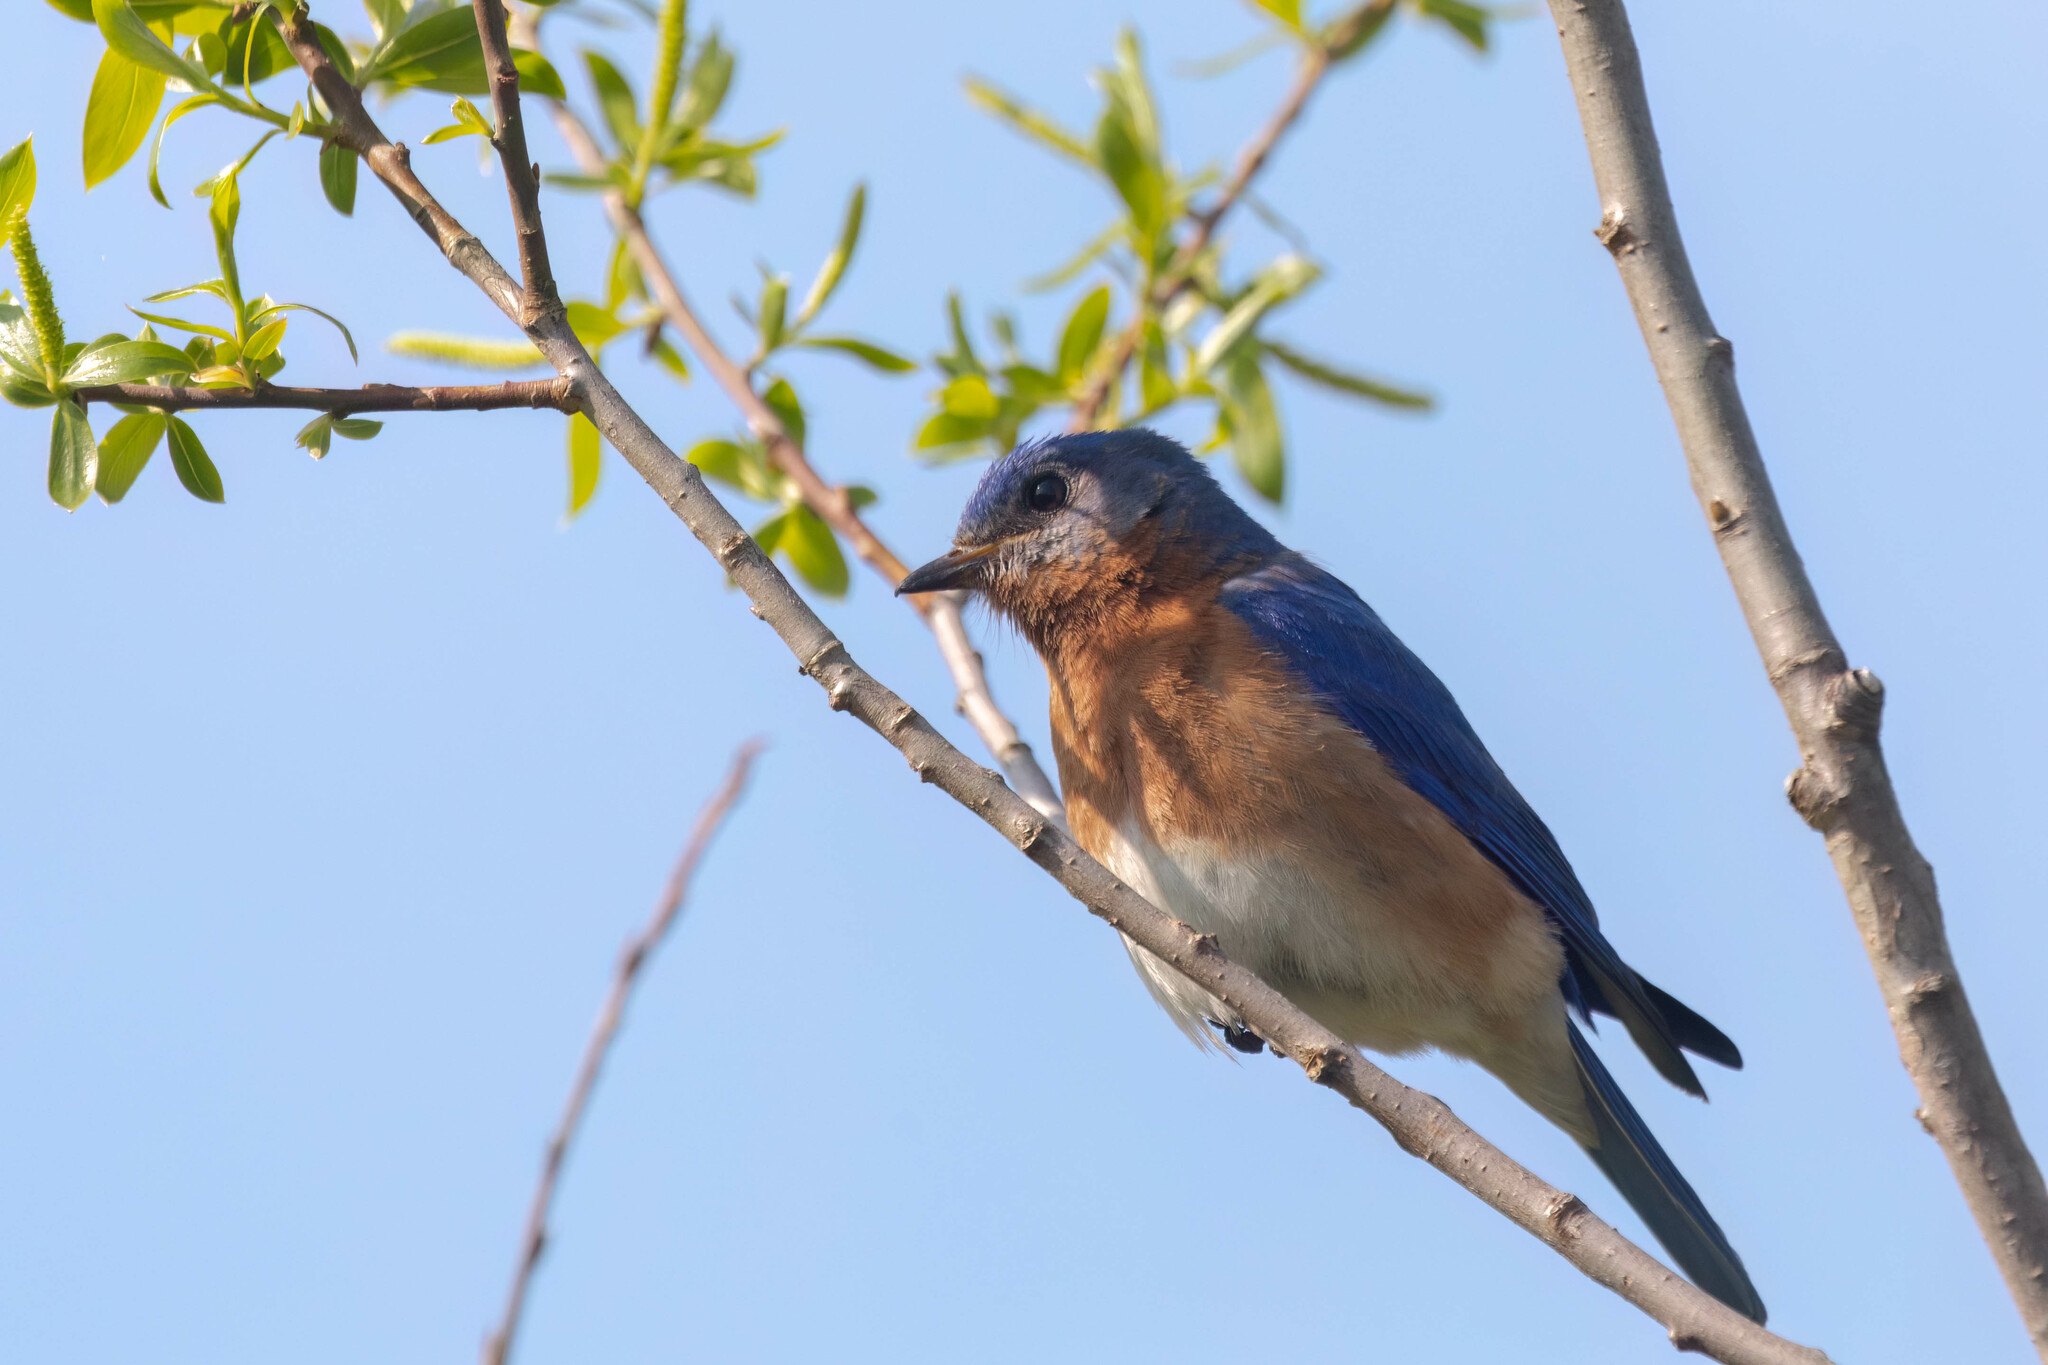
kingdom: Animalia
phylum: Chordata
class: Aves
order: Passeriformes
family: Turdidae
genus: Sialia
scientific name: Sialia sialis
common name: Eastern bluebird
